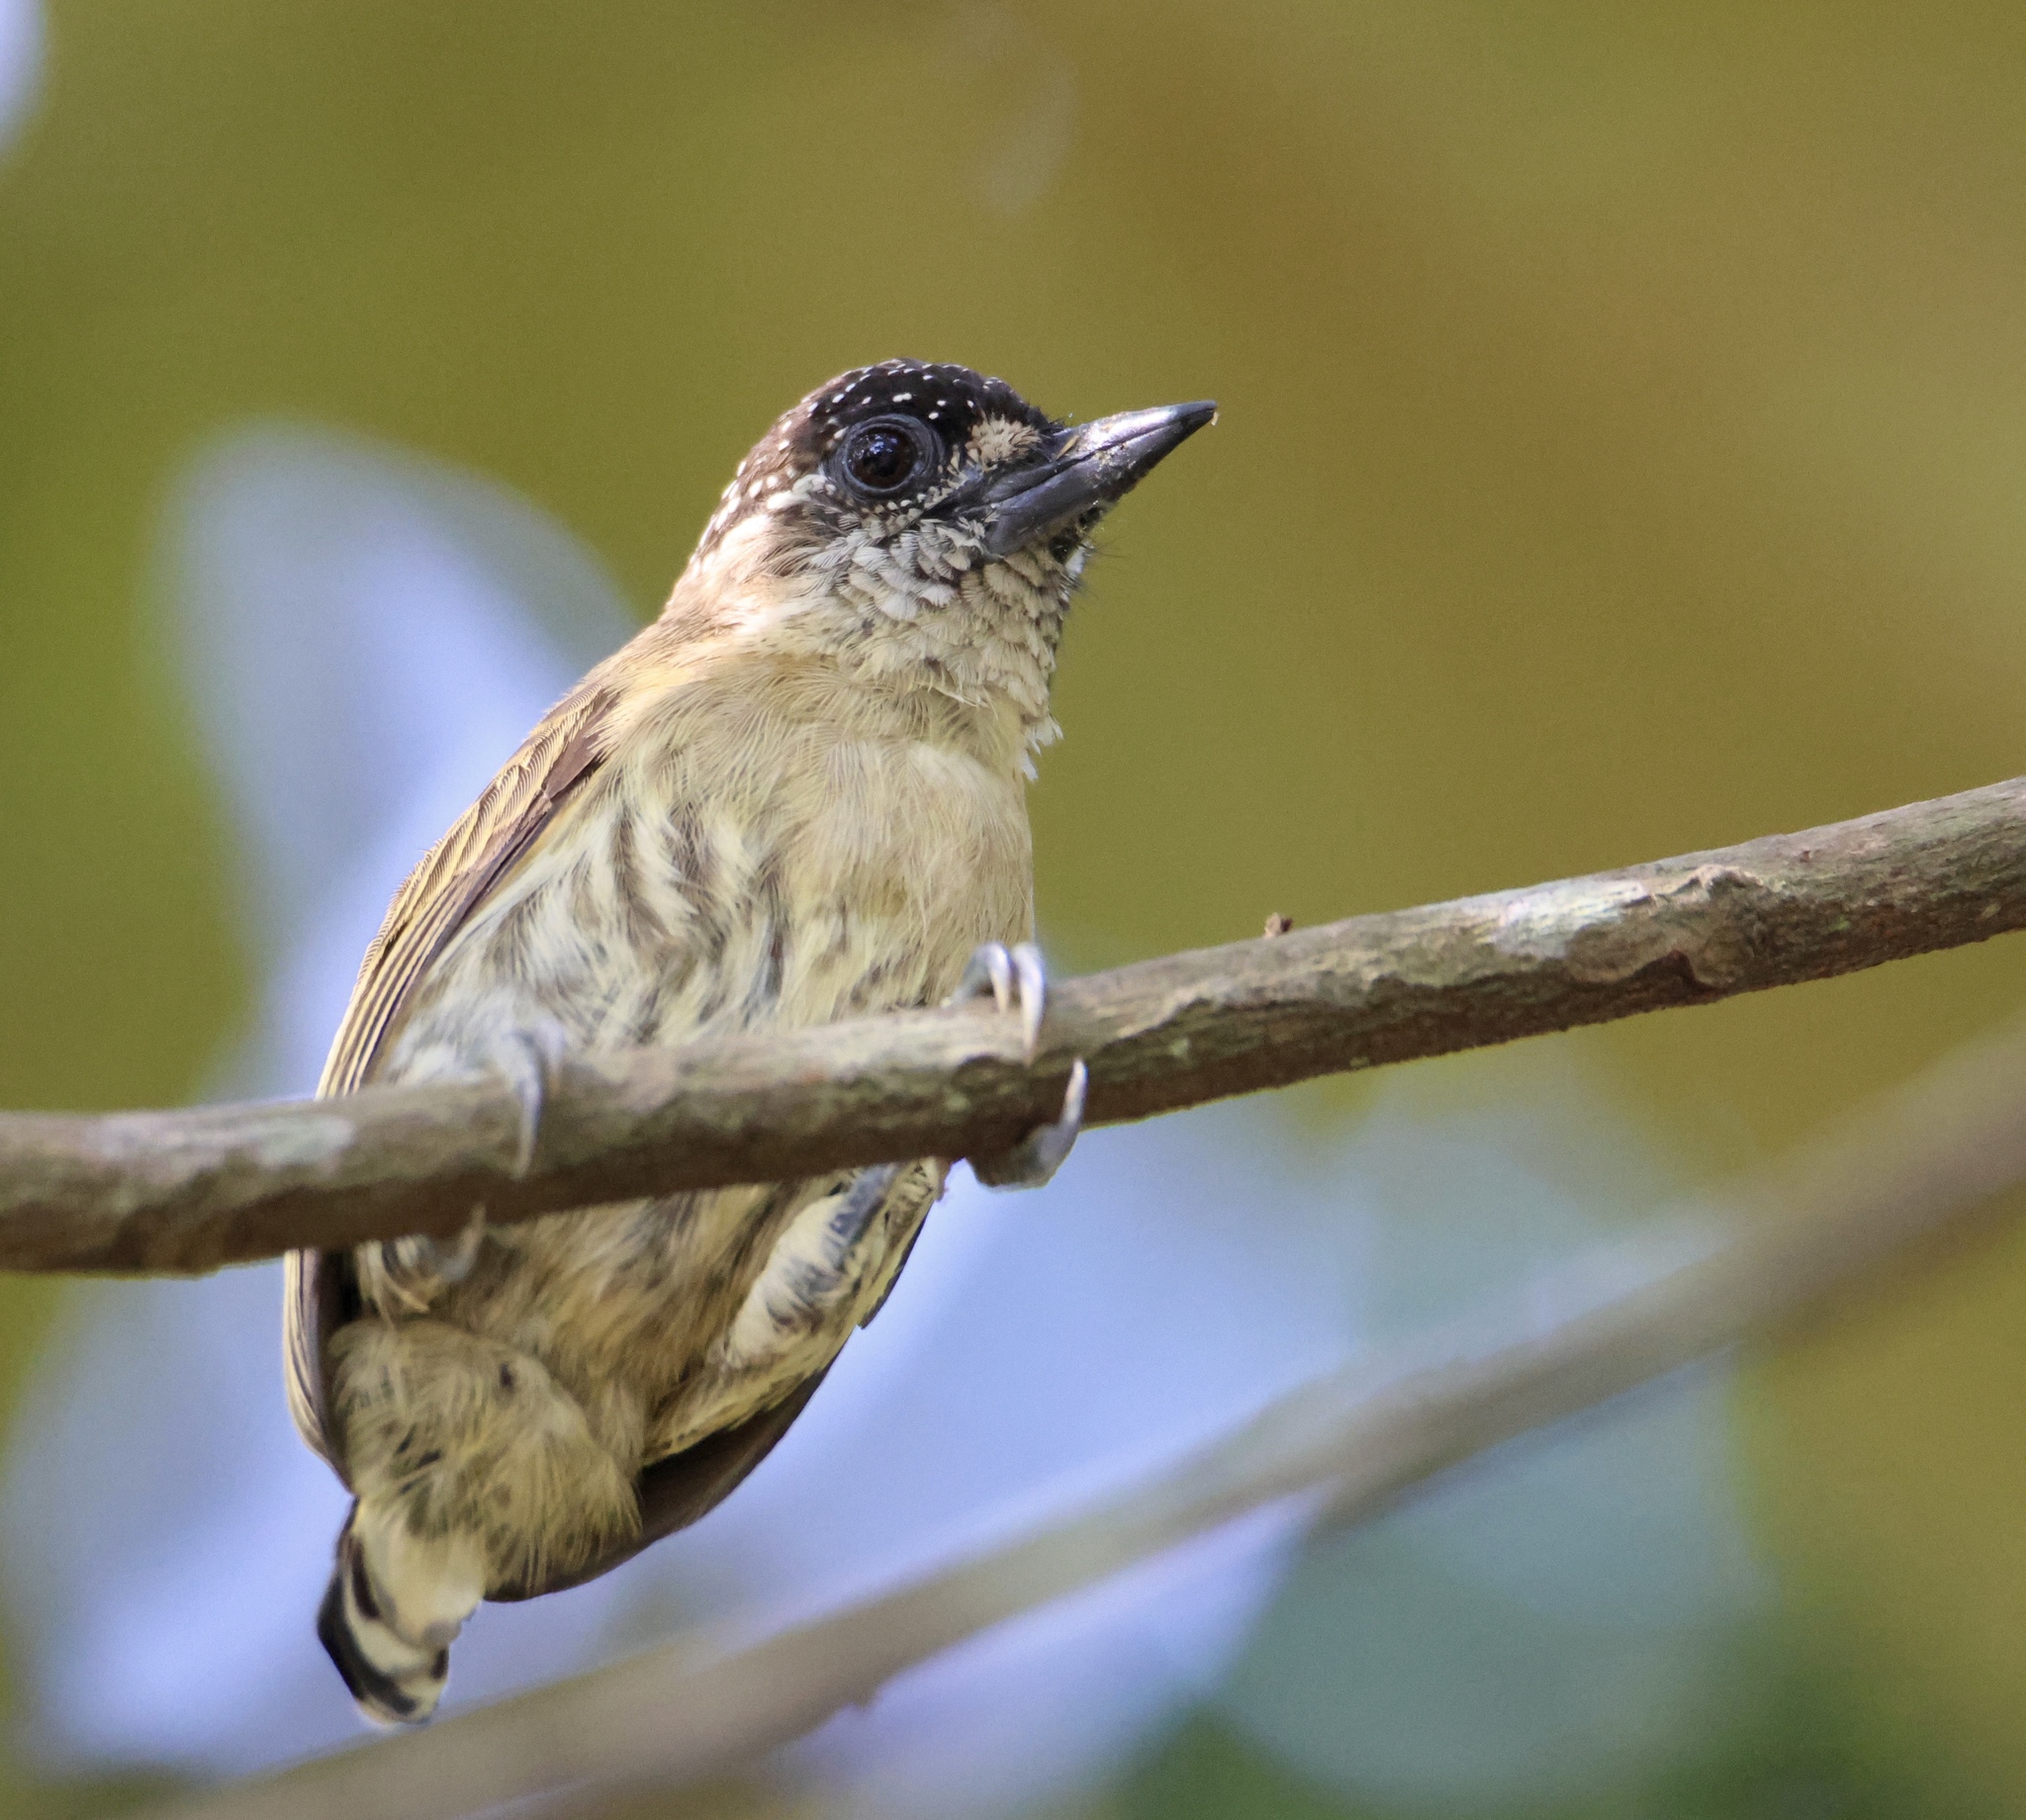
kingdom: Animalia
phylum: Chordata
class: Aves
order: Piciformes
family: Picidae
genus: Picumnus
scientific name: Picumnus olivaceus
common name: Olivaceous piculet
